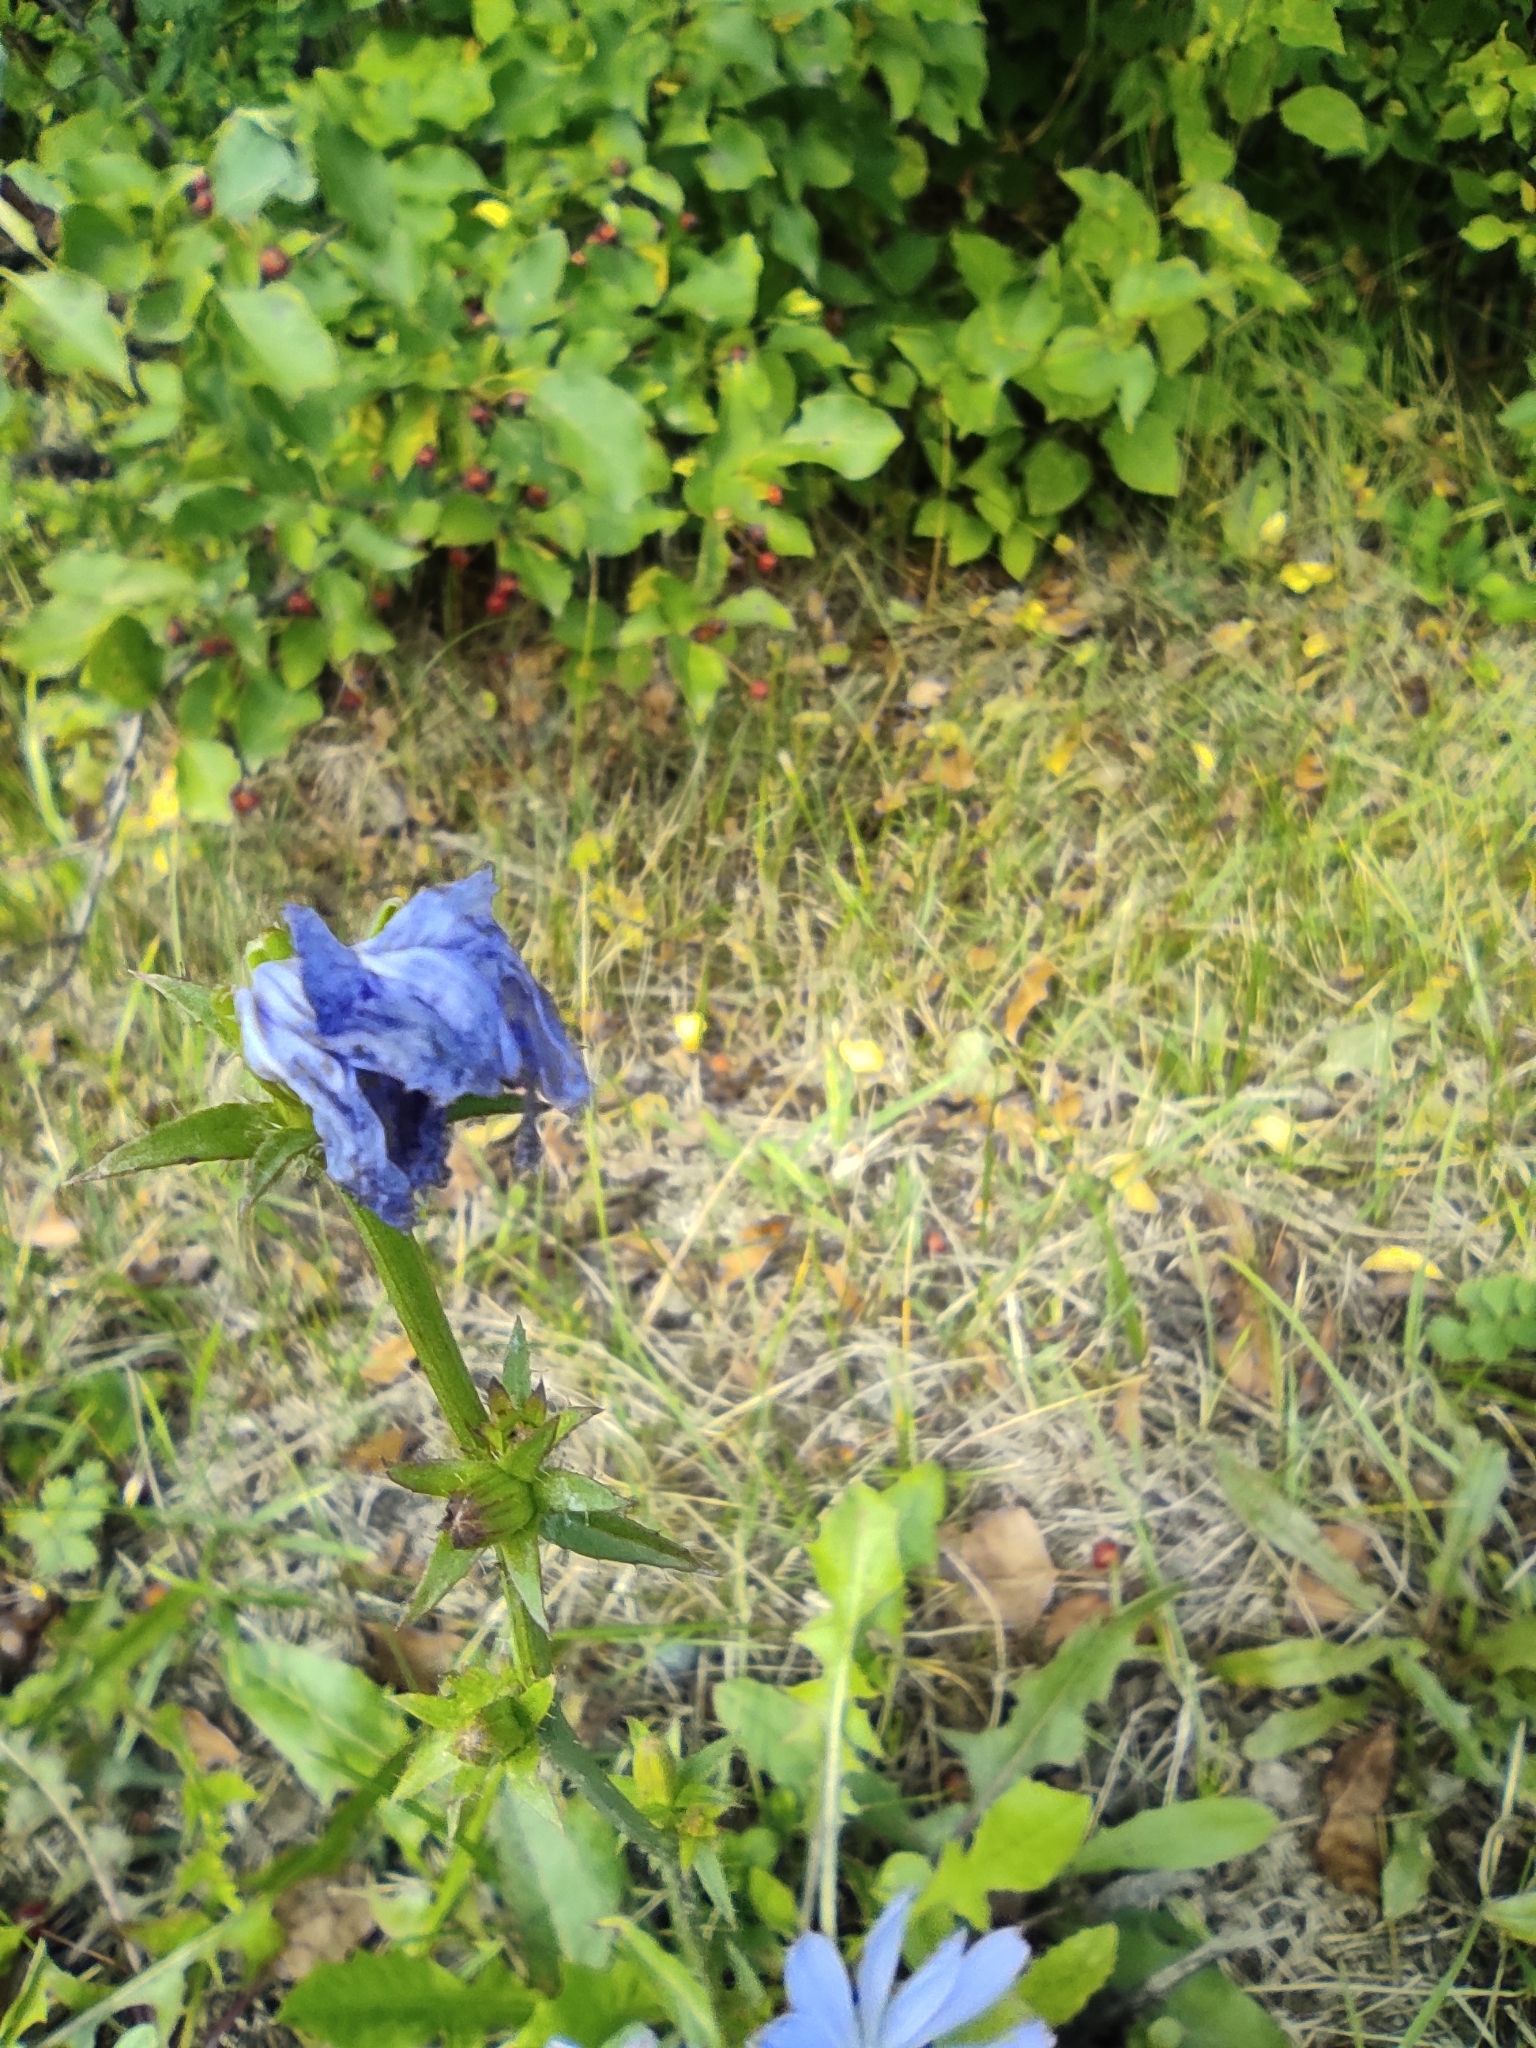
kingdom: Plantae
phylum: Tracheophyta
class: Magnoliopsida
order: Asterales
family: Asteraceae
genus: Cichorium
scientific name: Cichorium intybus
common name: Chicory
